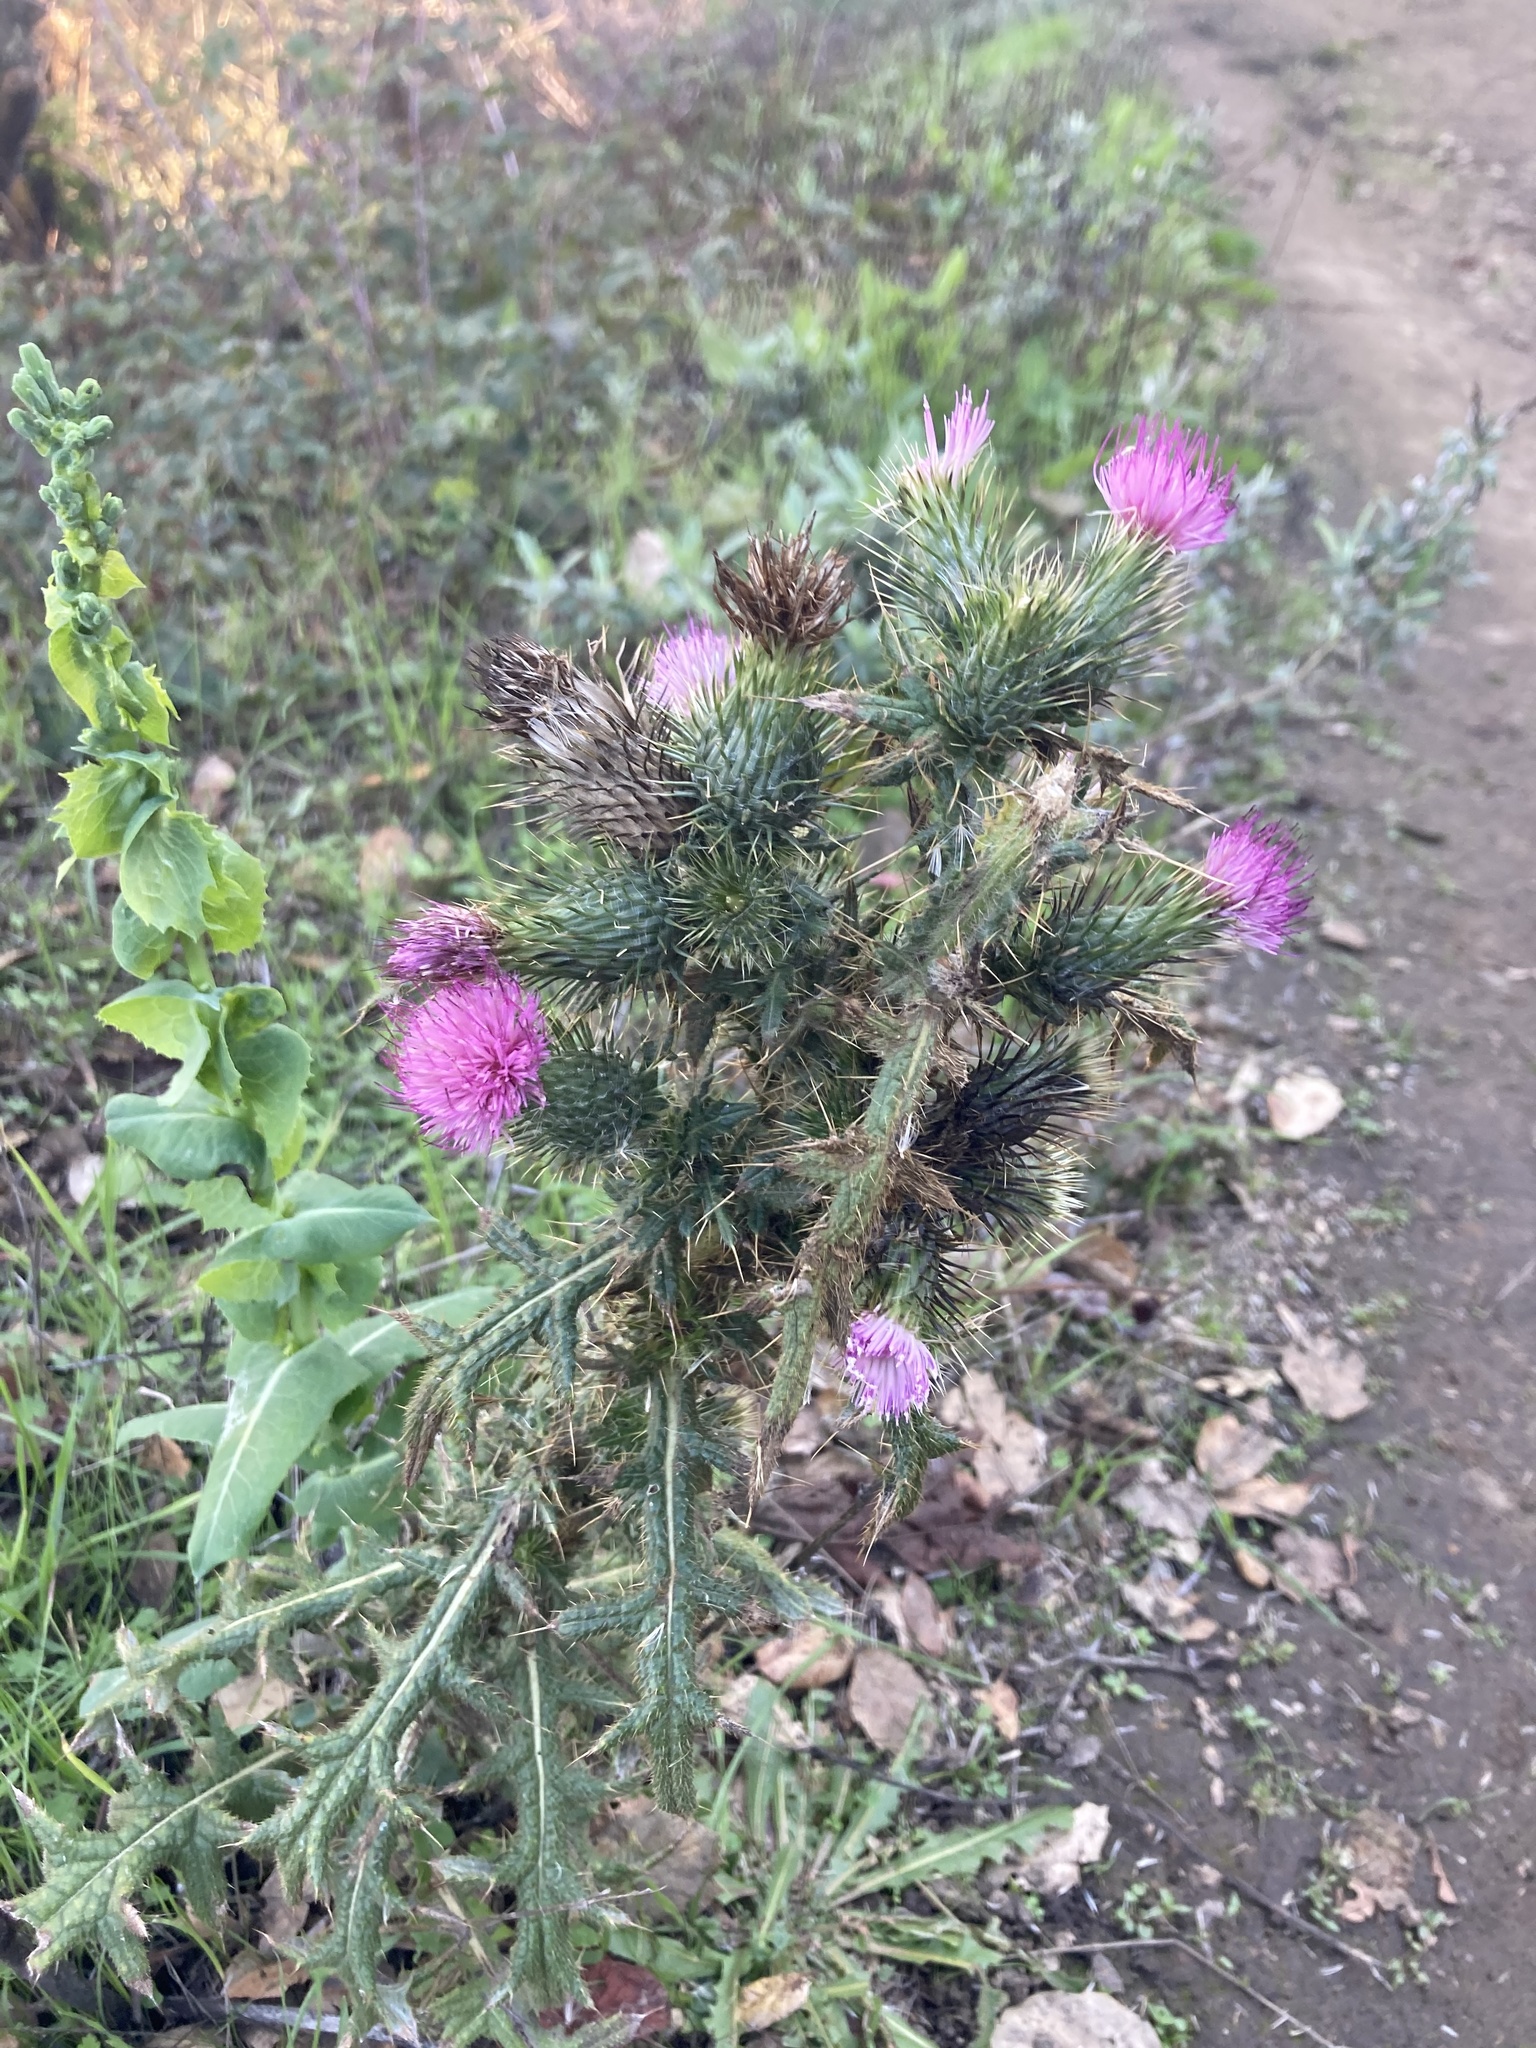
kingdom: Plantae
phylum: Tracheophyta
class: Magnoliopsida
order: Asterales
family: Asteraceae
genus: Cirsium
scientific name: Cirsium vulgare
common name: Bull thistle
